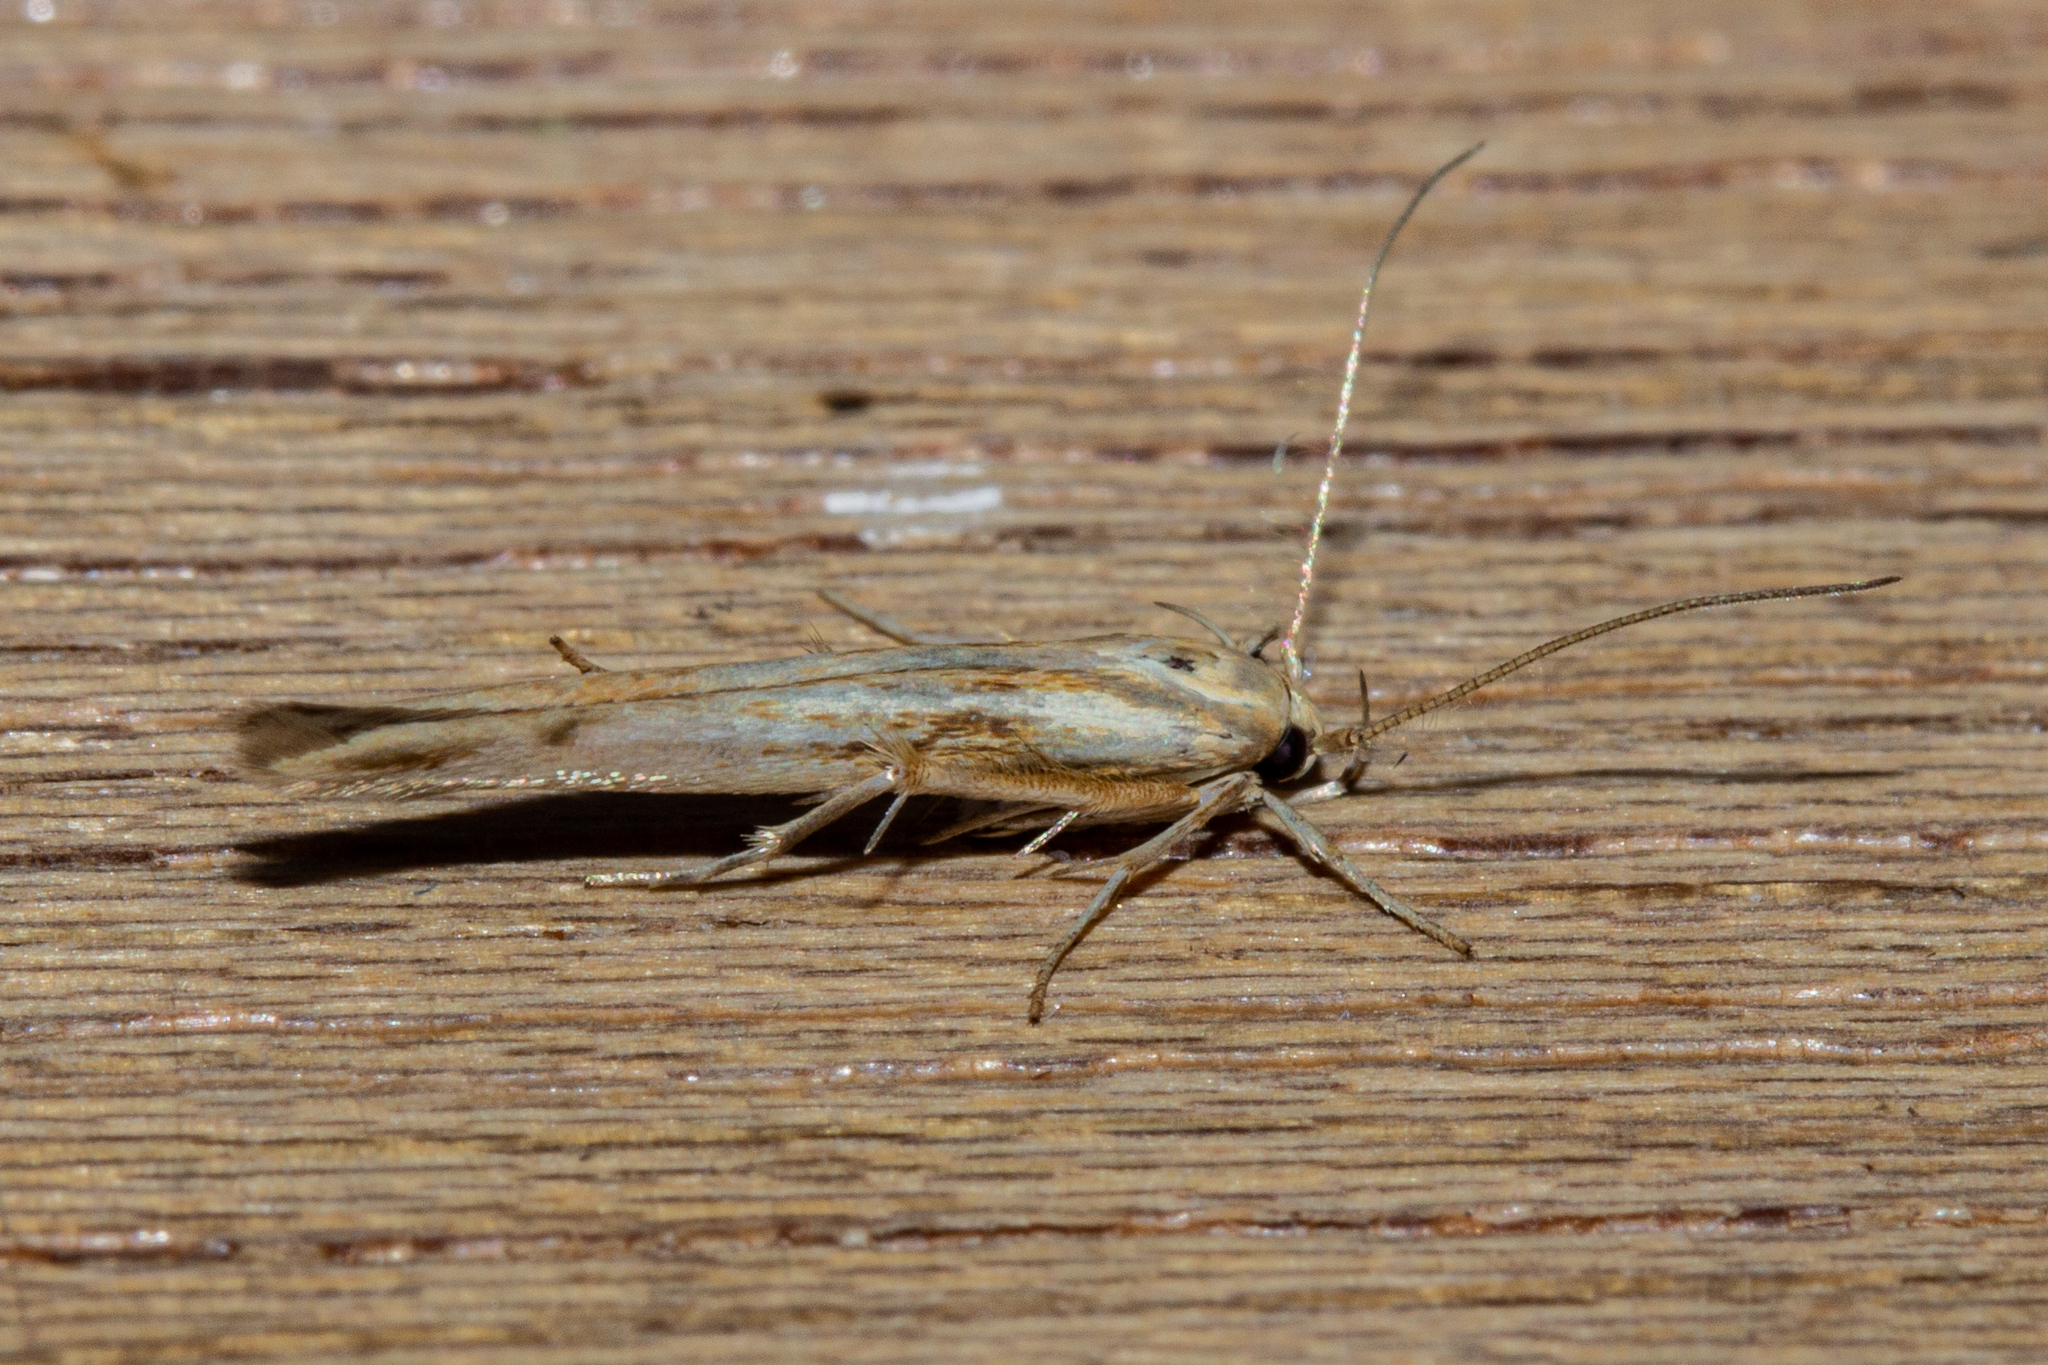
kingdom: Animalia
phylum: Arthropoda
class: Insecta
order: Lepidoptera
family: Stathmopodidae
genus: Stathmopoda
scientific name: Stathmopoda aposema
